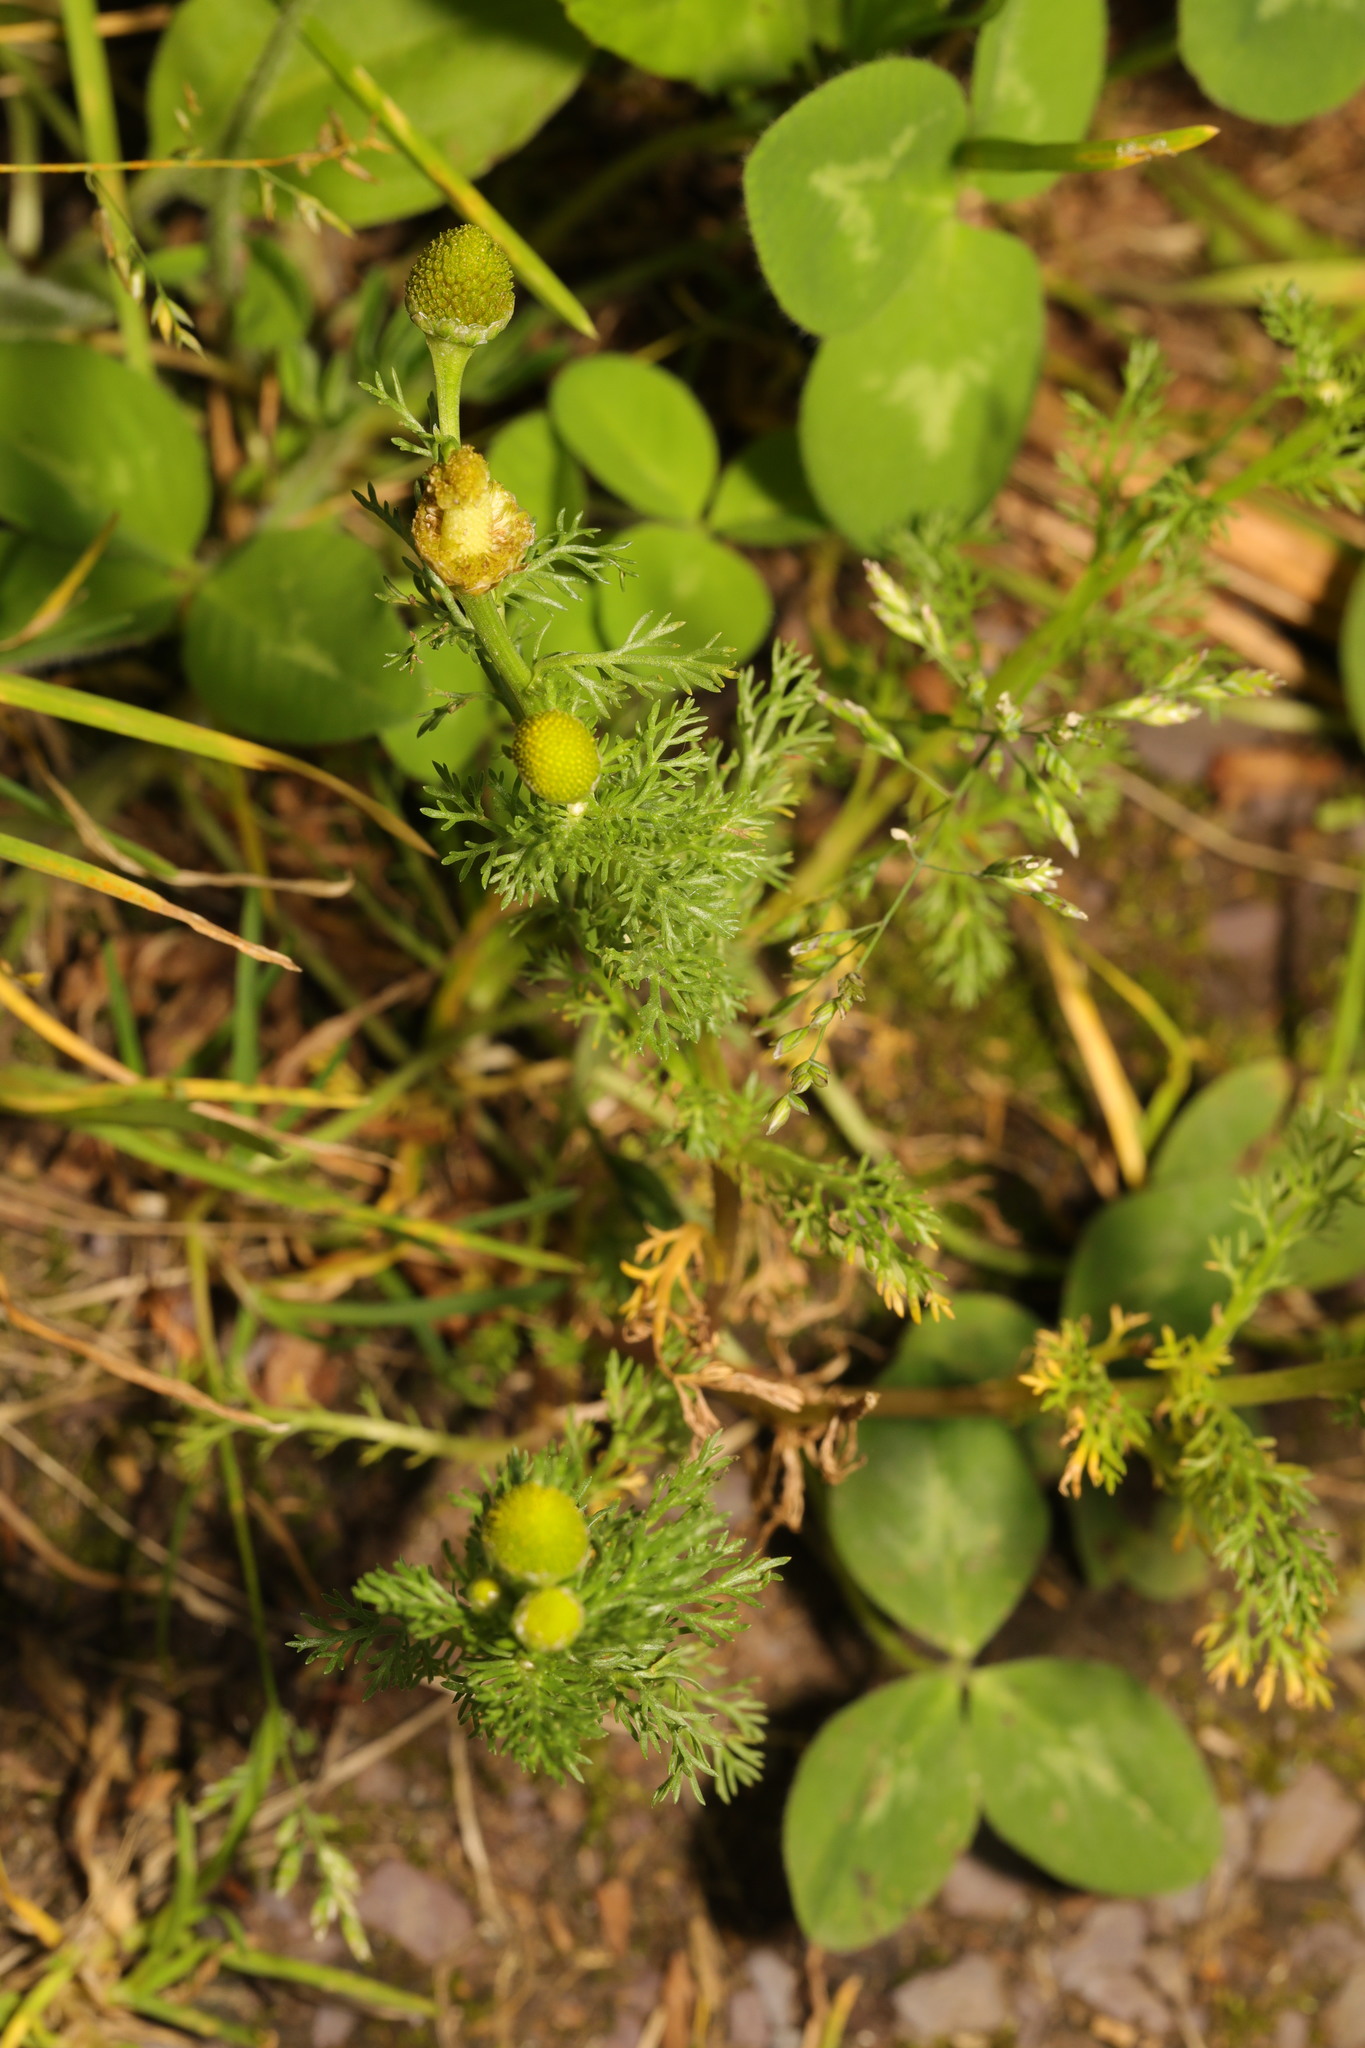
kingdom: Plantae
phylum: Tracheophyta
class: Magnoliopsida
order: Asterales
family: Asteraceae
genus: Matricaria
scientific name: Matricaria discoidea
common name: Disc mayweed
